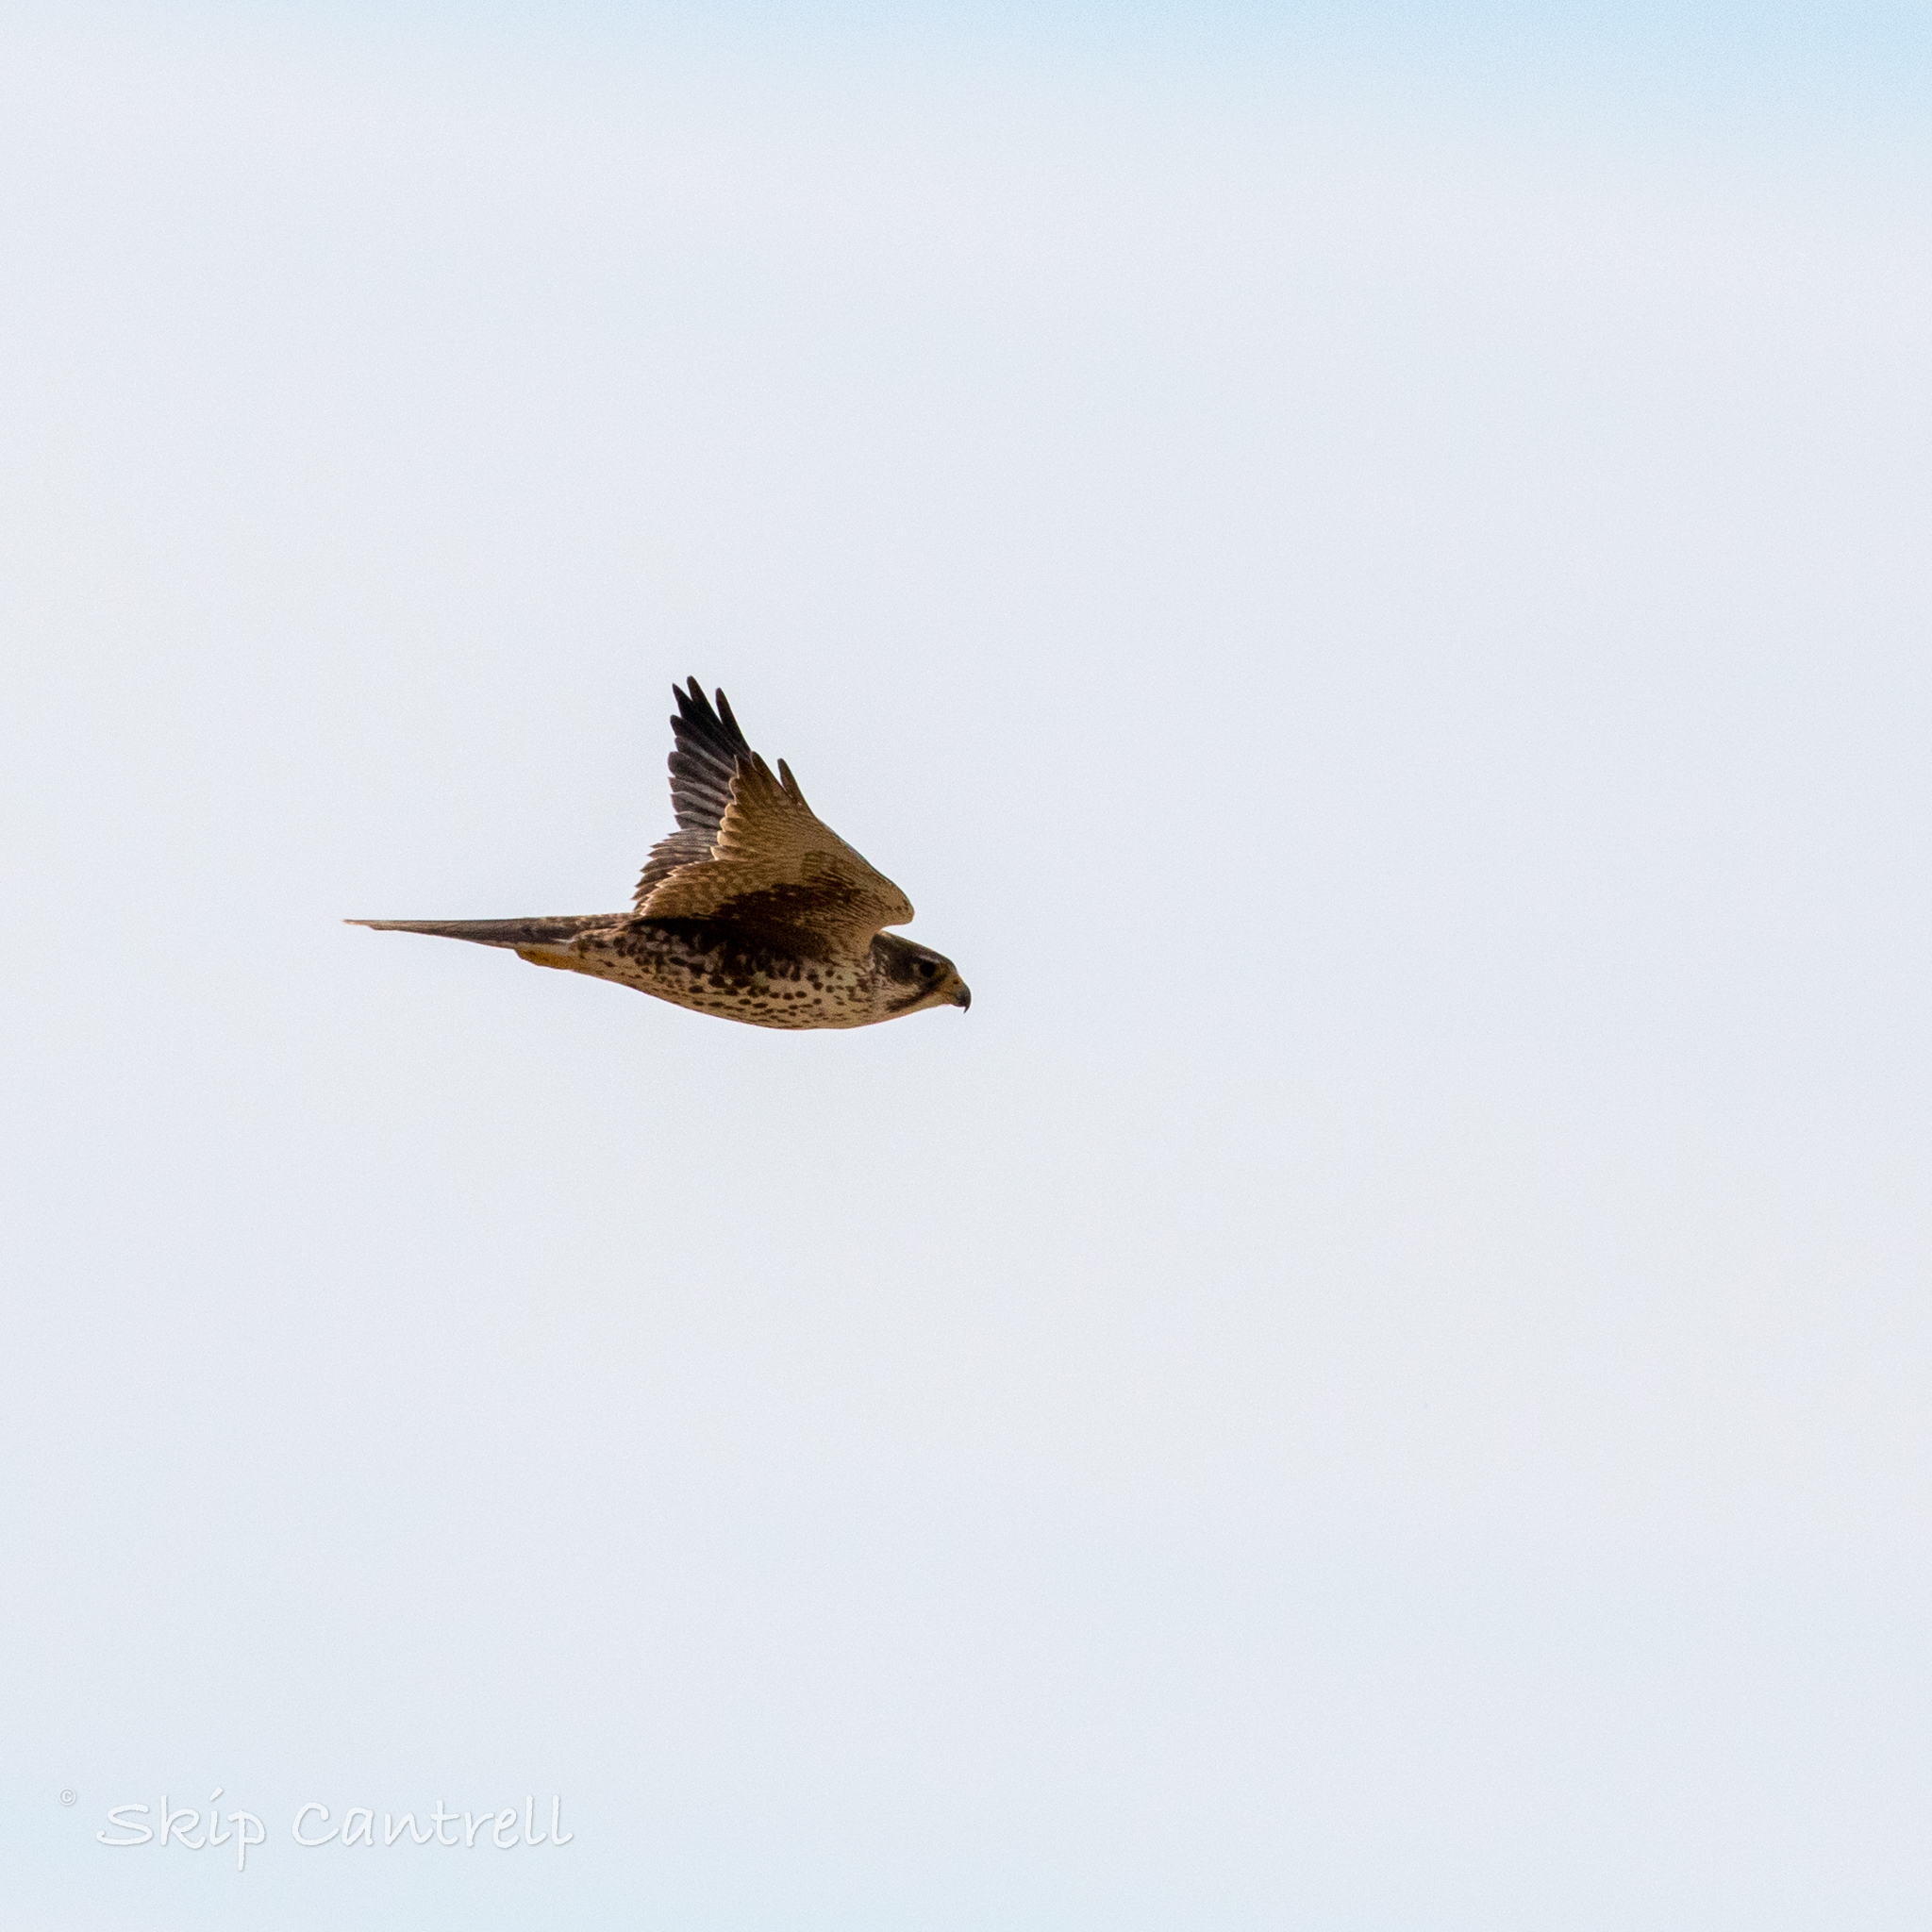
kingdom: Animalia
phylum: Chordata
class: Aves
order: Falconiformes
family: Falconidae
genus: Falco
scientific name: Falco mexicanus
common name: Prairie falcon
